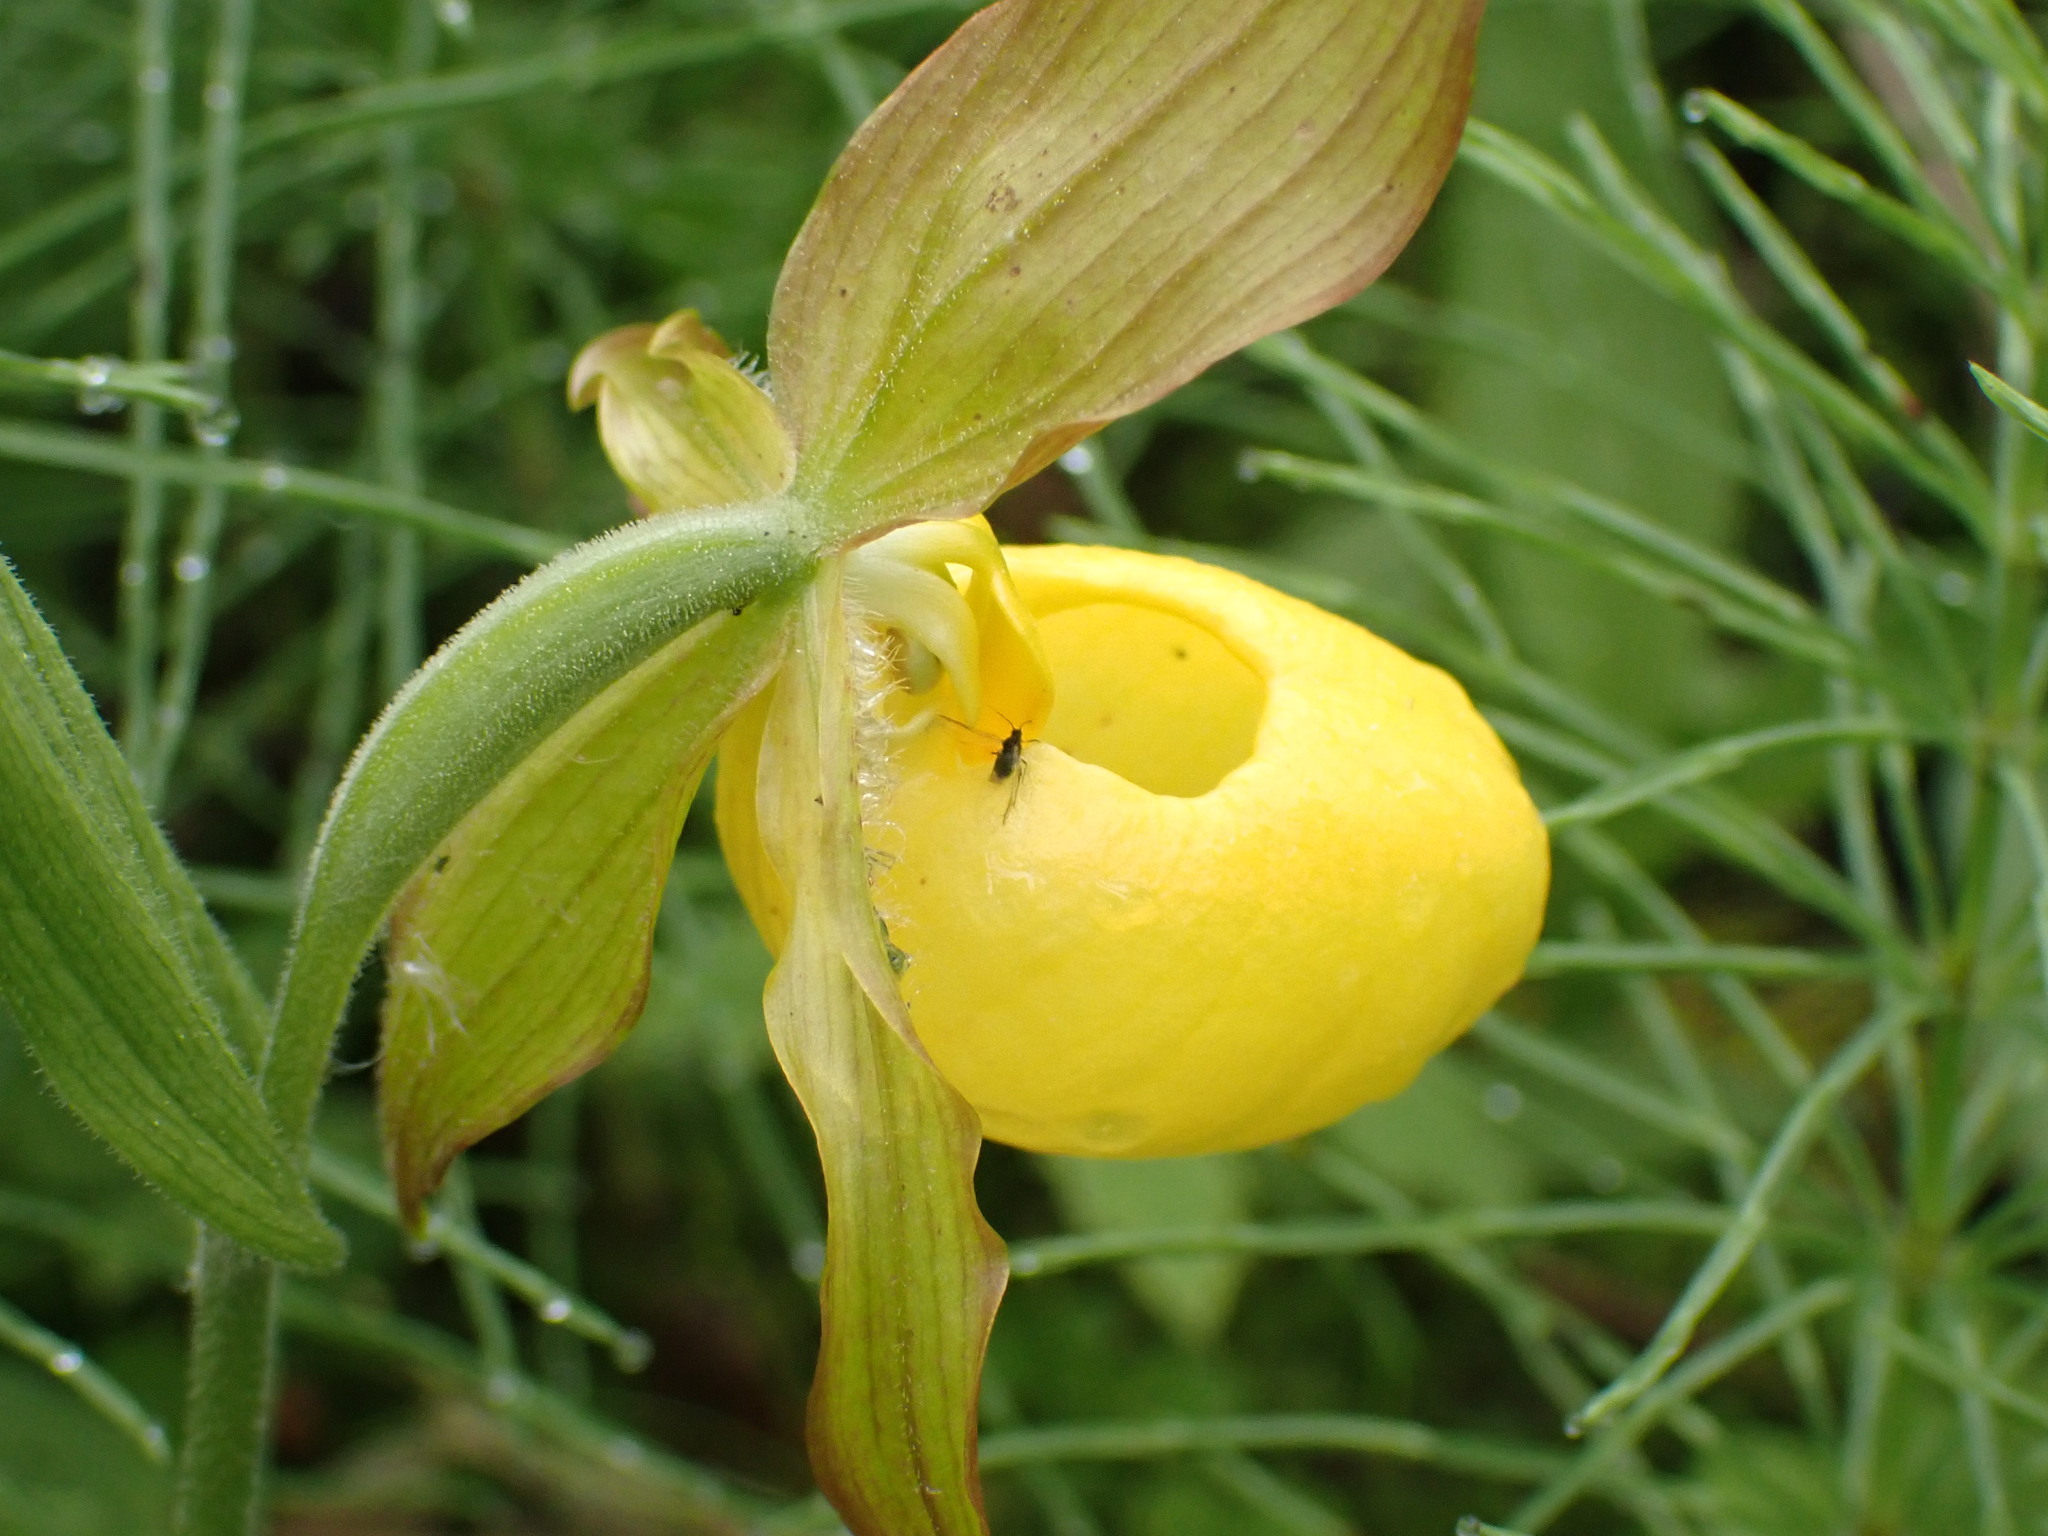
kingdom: Plantae
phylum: Tracheophyta
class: Liliopsida
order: Asparagales
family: Orchidaceae
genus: Cypripedium
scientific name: Cypripedium parviflorum
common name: American yellow lady's-slipper
